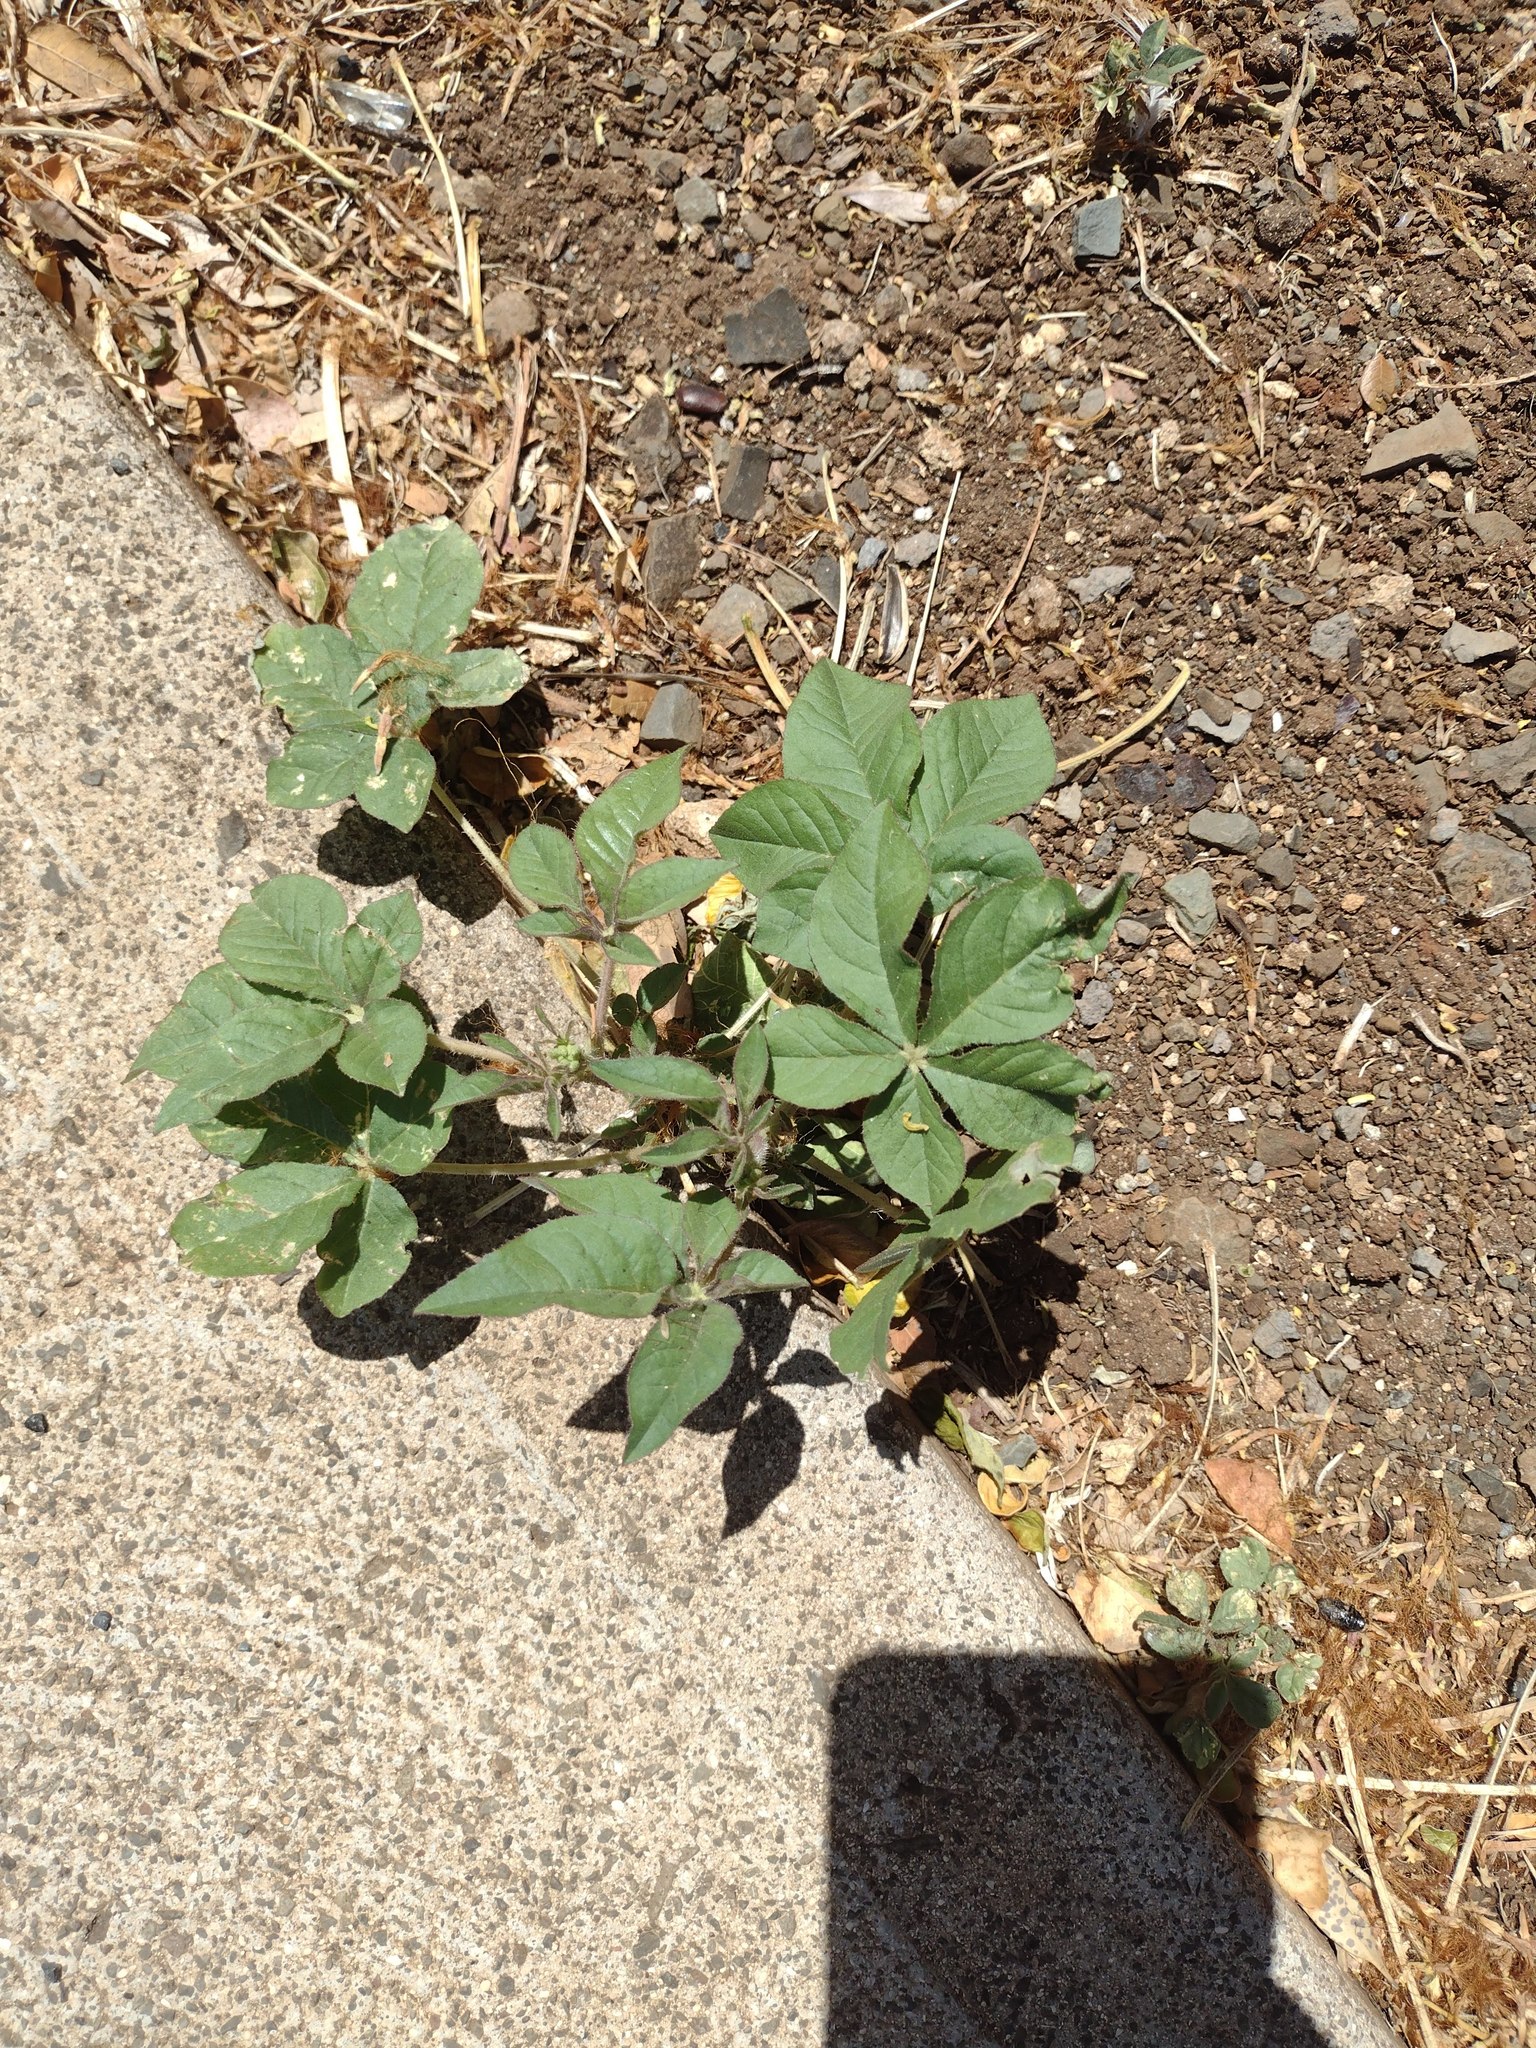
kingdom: Plantae
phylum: Tracheophyta
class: Magnoliopsida
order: Brassicales
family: Cleomaceae
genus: Gynandropsis
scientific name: Gynandropsis gynandra
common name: Spiderwisp
